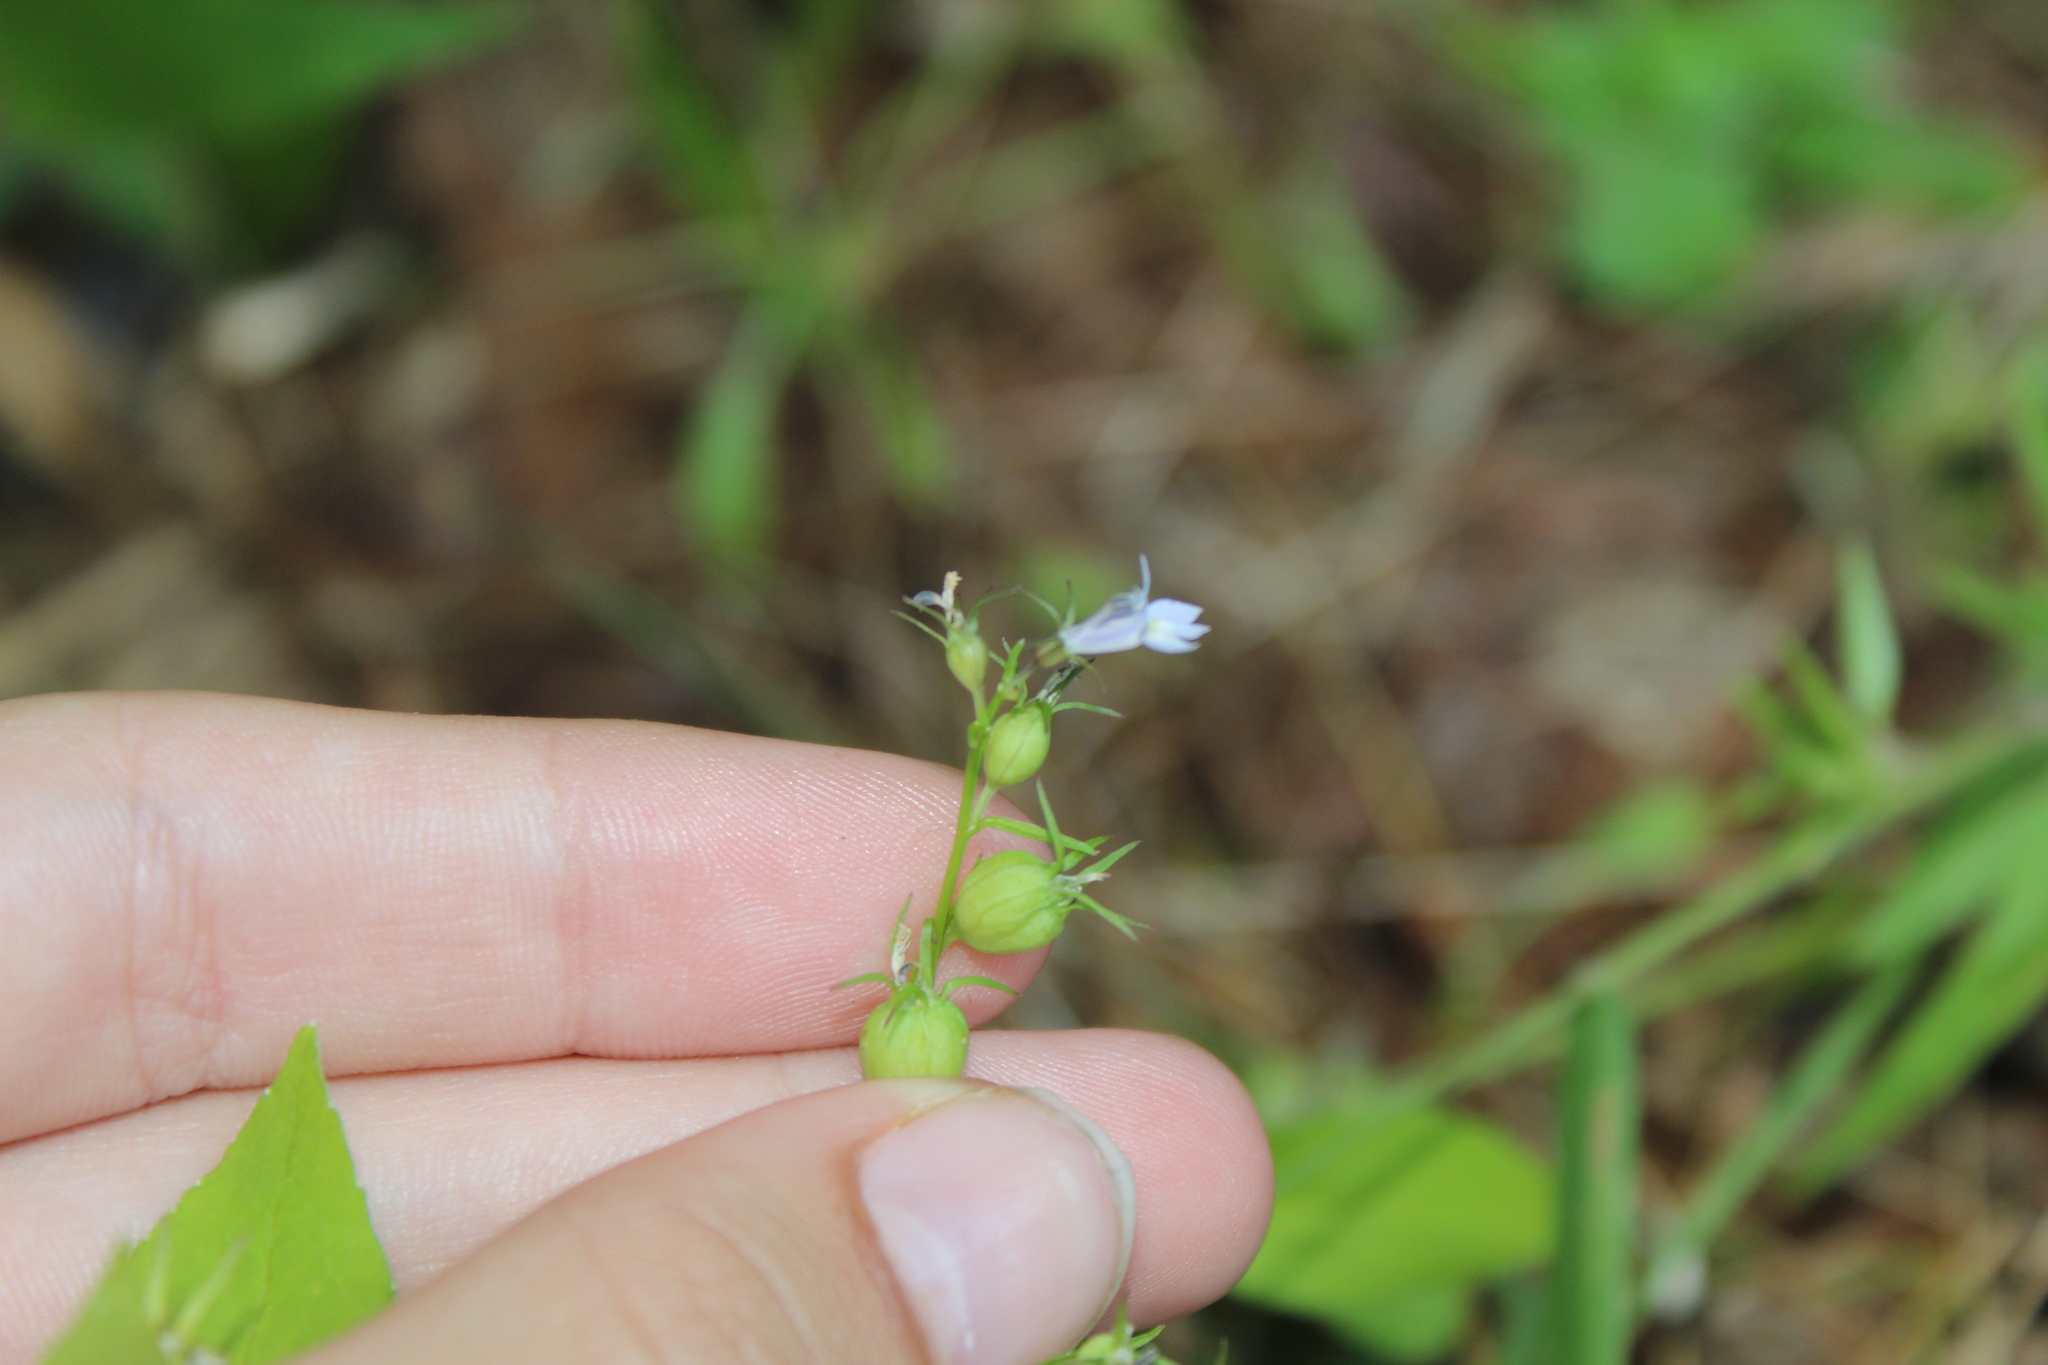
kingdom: Plantae
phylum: Tracheophyta
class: Magnoliopsida
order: Asterales
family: Campanulaceae
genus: Lobelia
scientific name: Lobelia inflata
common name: Indian tobacco
